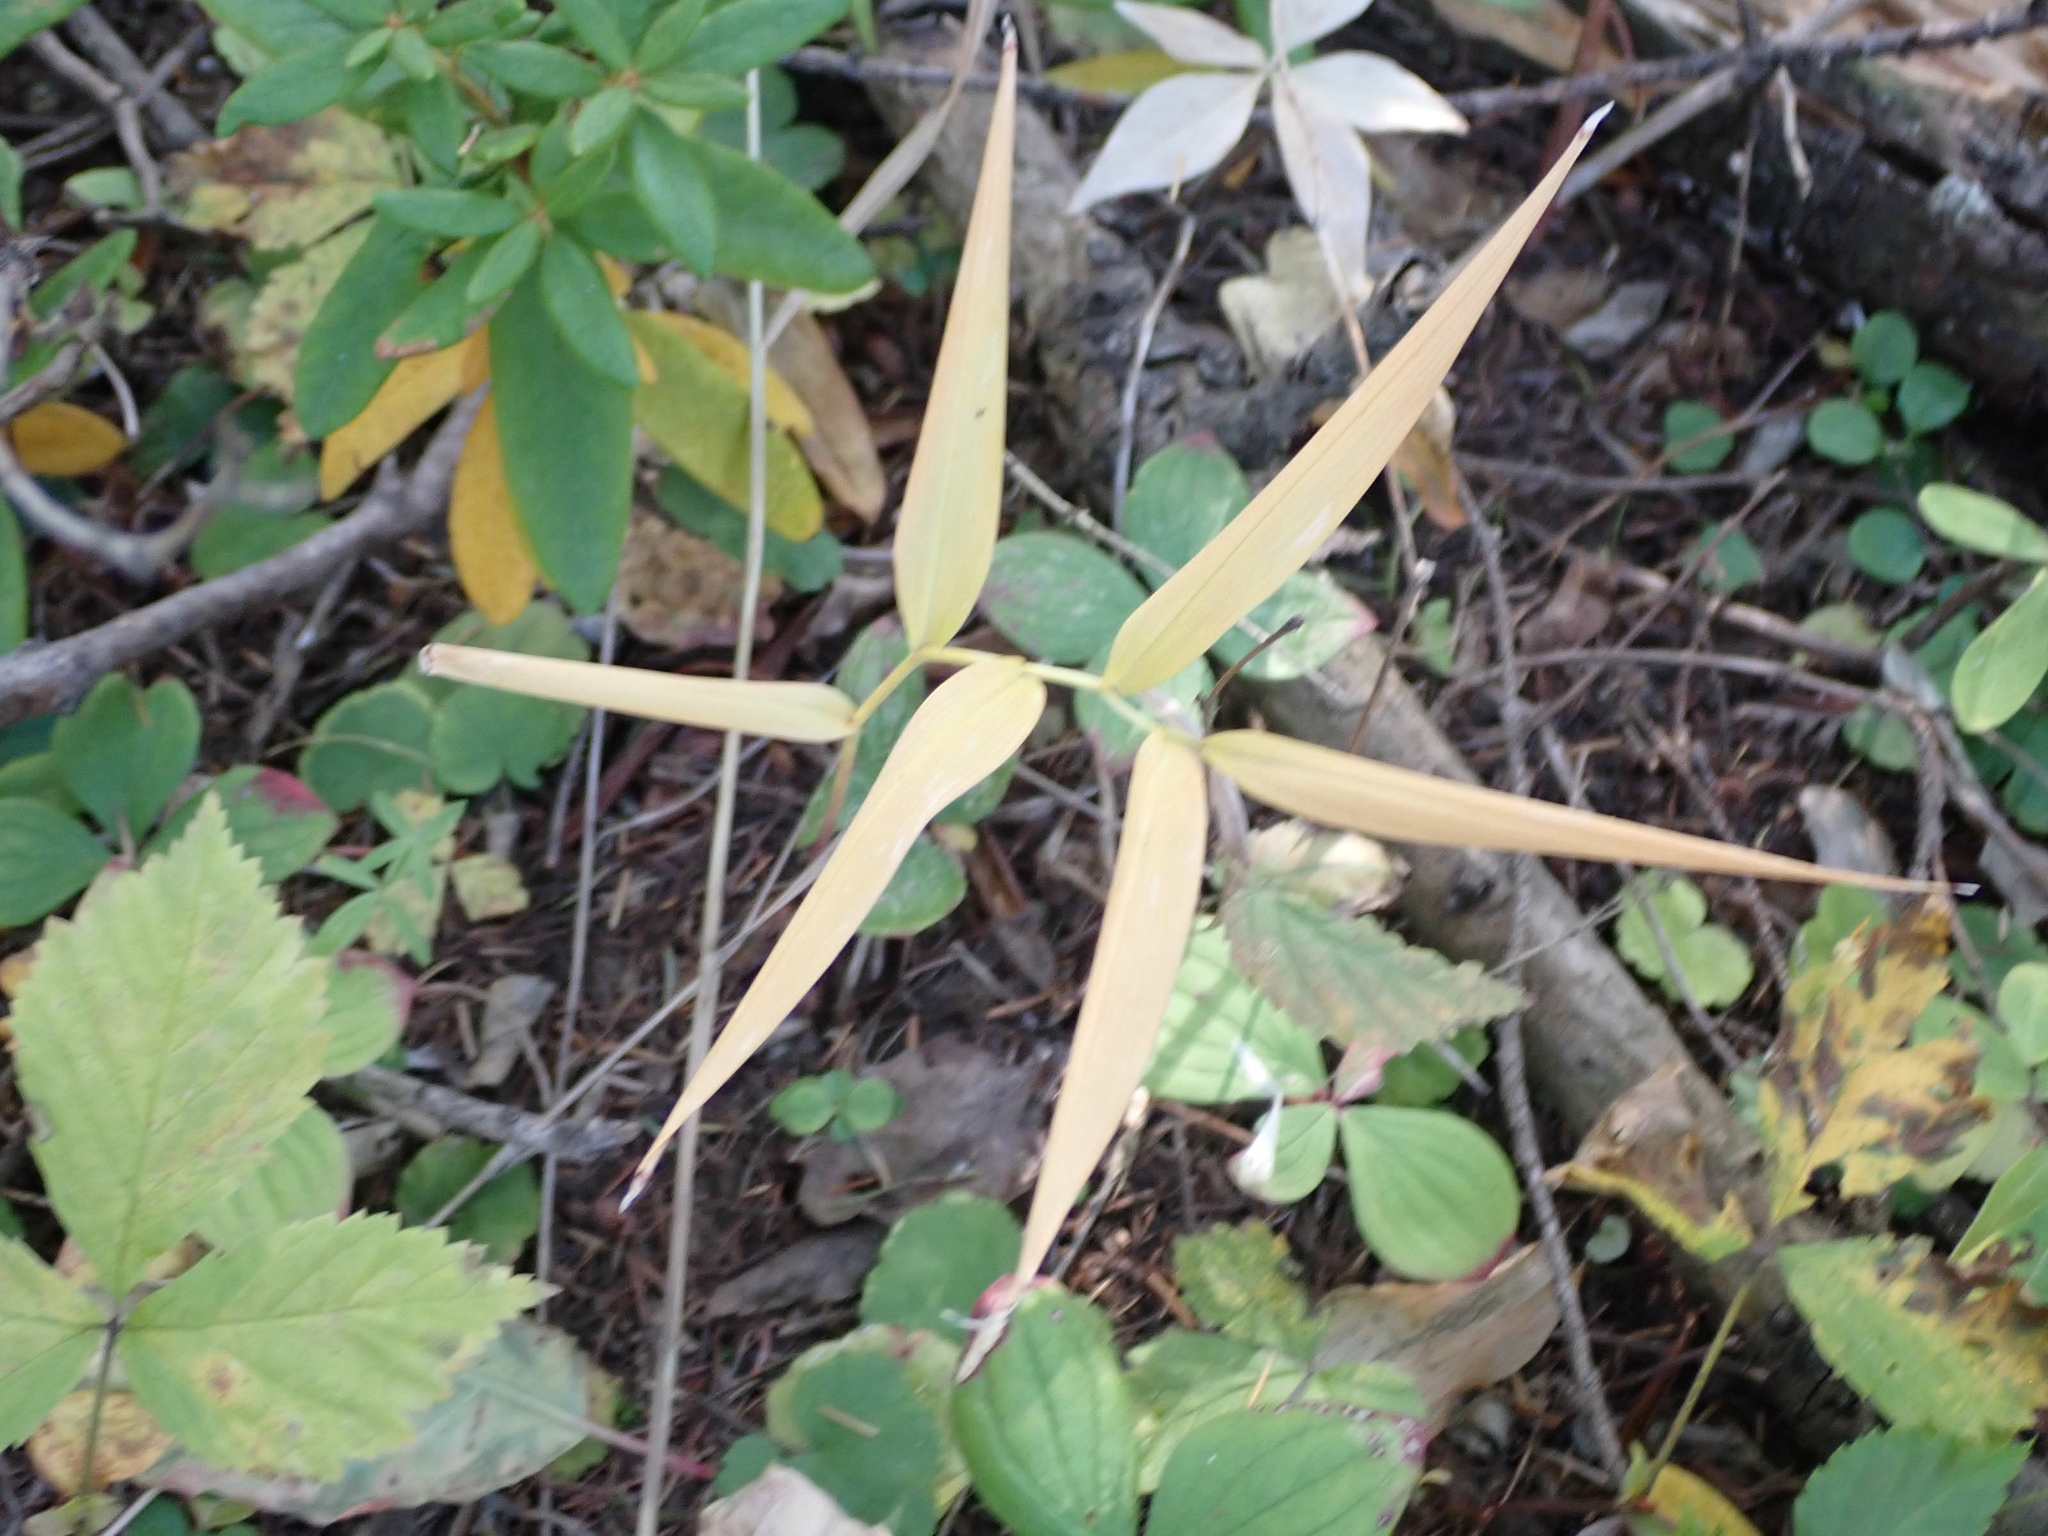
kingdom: Plantae
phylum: Tracheophyta
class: Liliopsida
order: Asparagales
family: Asparagaceae
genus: Maianthemum
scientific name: Maianthemum stellatum
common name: Little false solomon's seal
